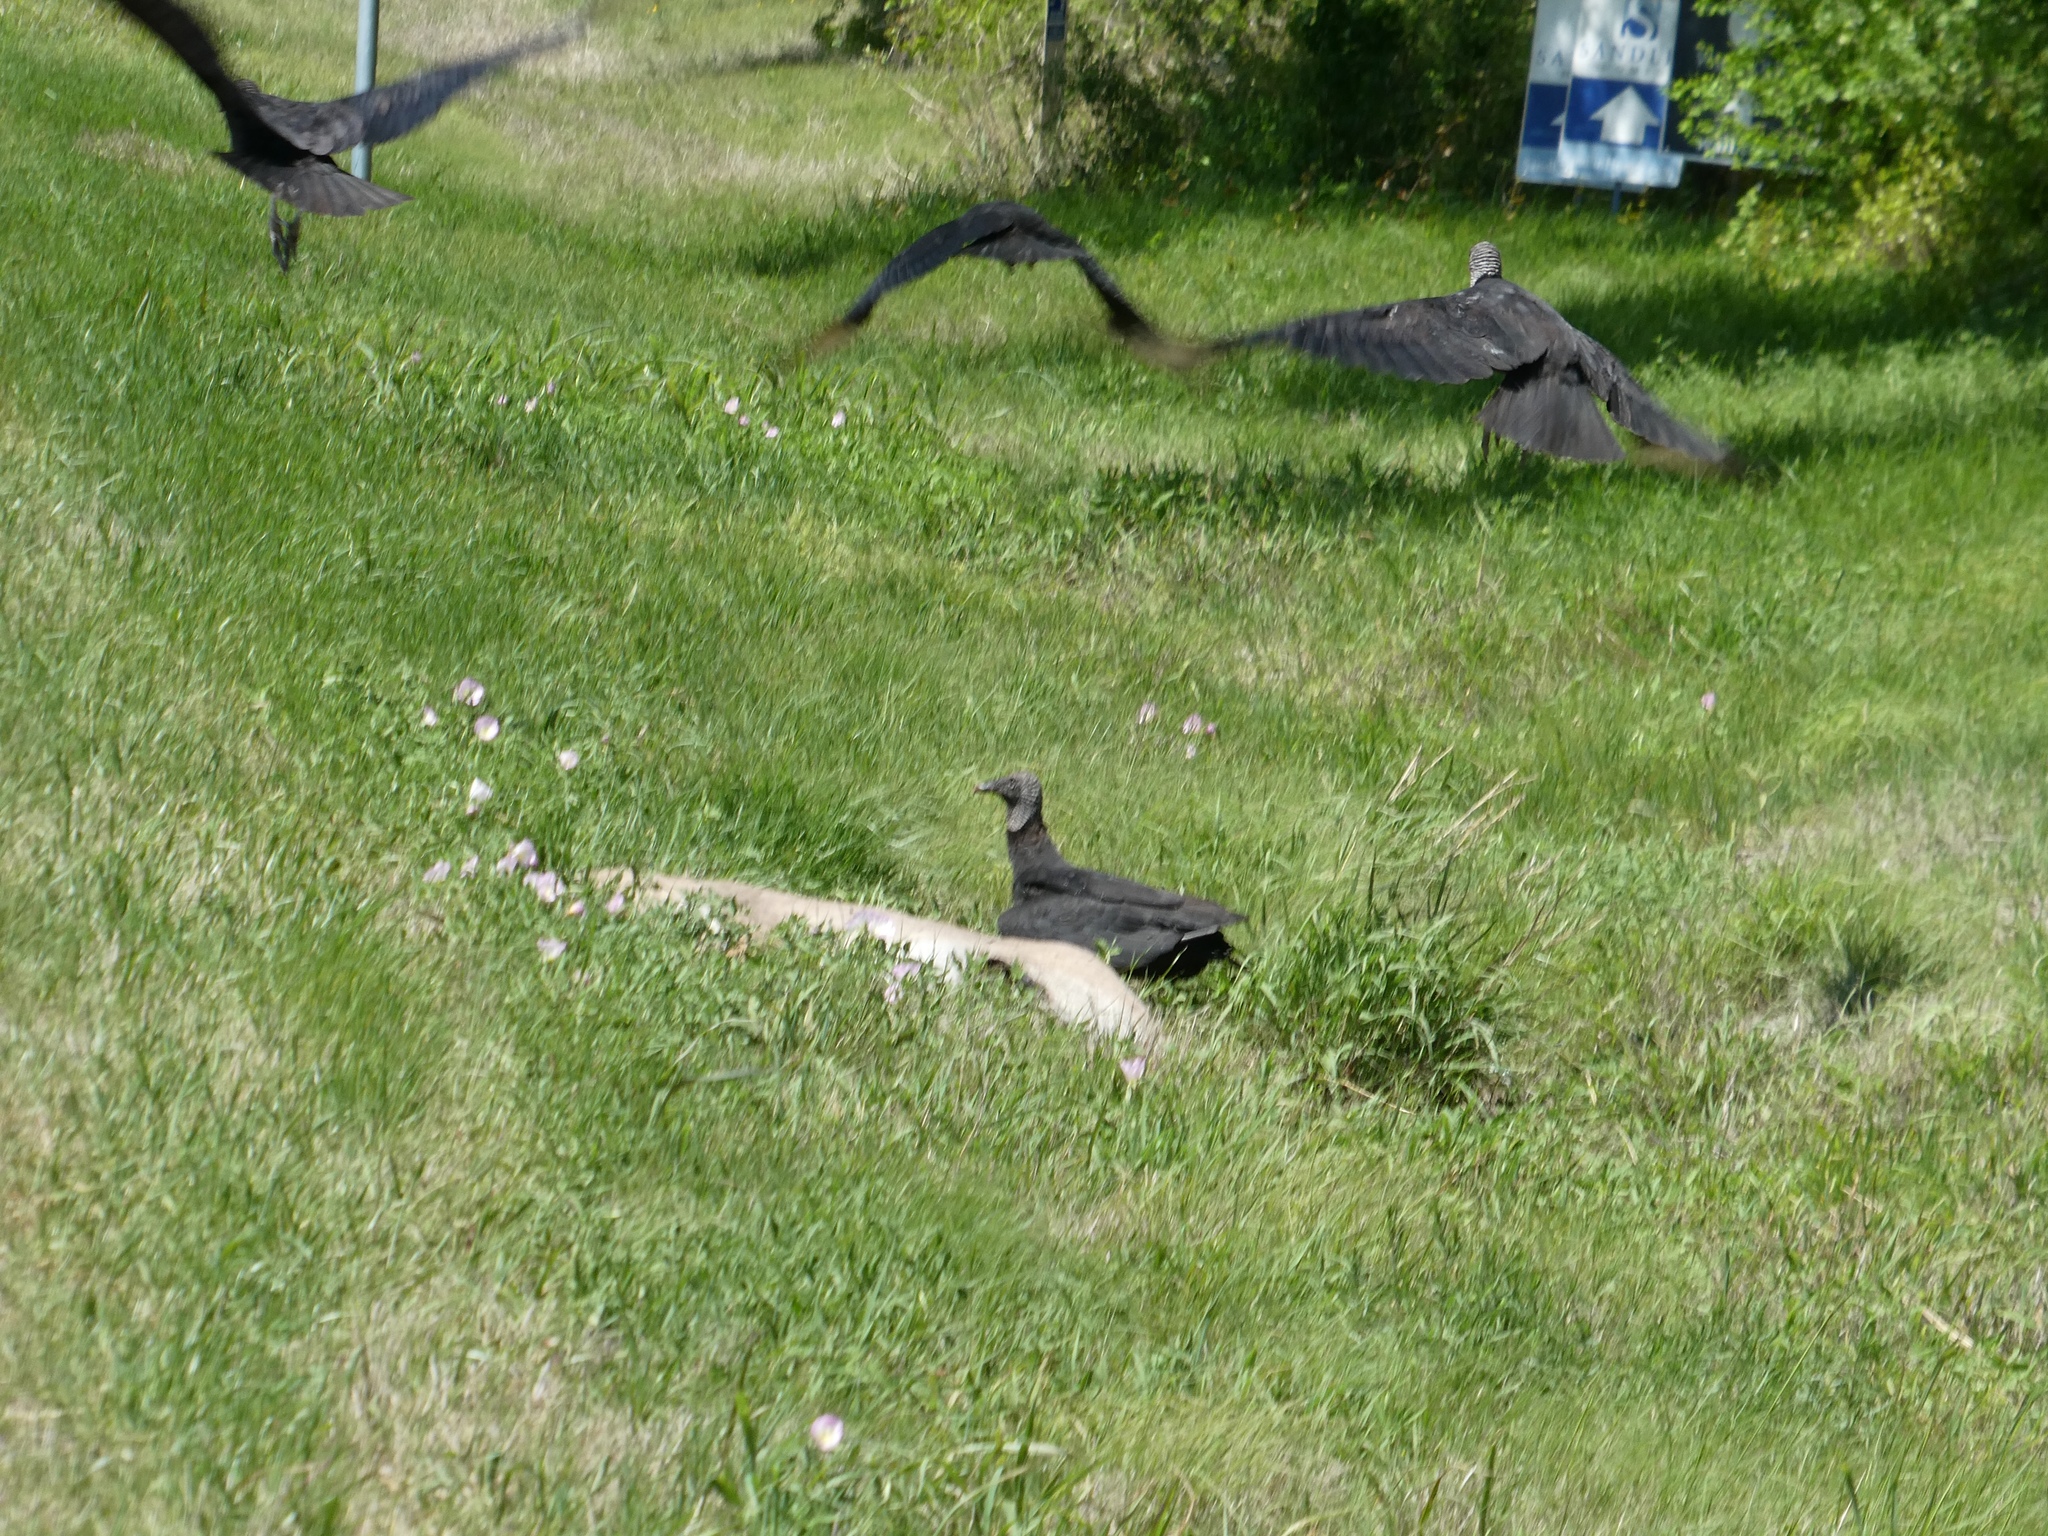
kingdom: Animalia
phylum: Chordata
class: Aves
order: Accipitriformes
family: Cathartidae
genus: Coragyps
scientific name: Coragyps atratus
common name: Black vulture
